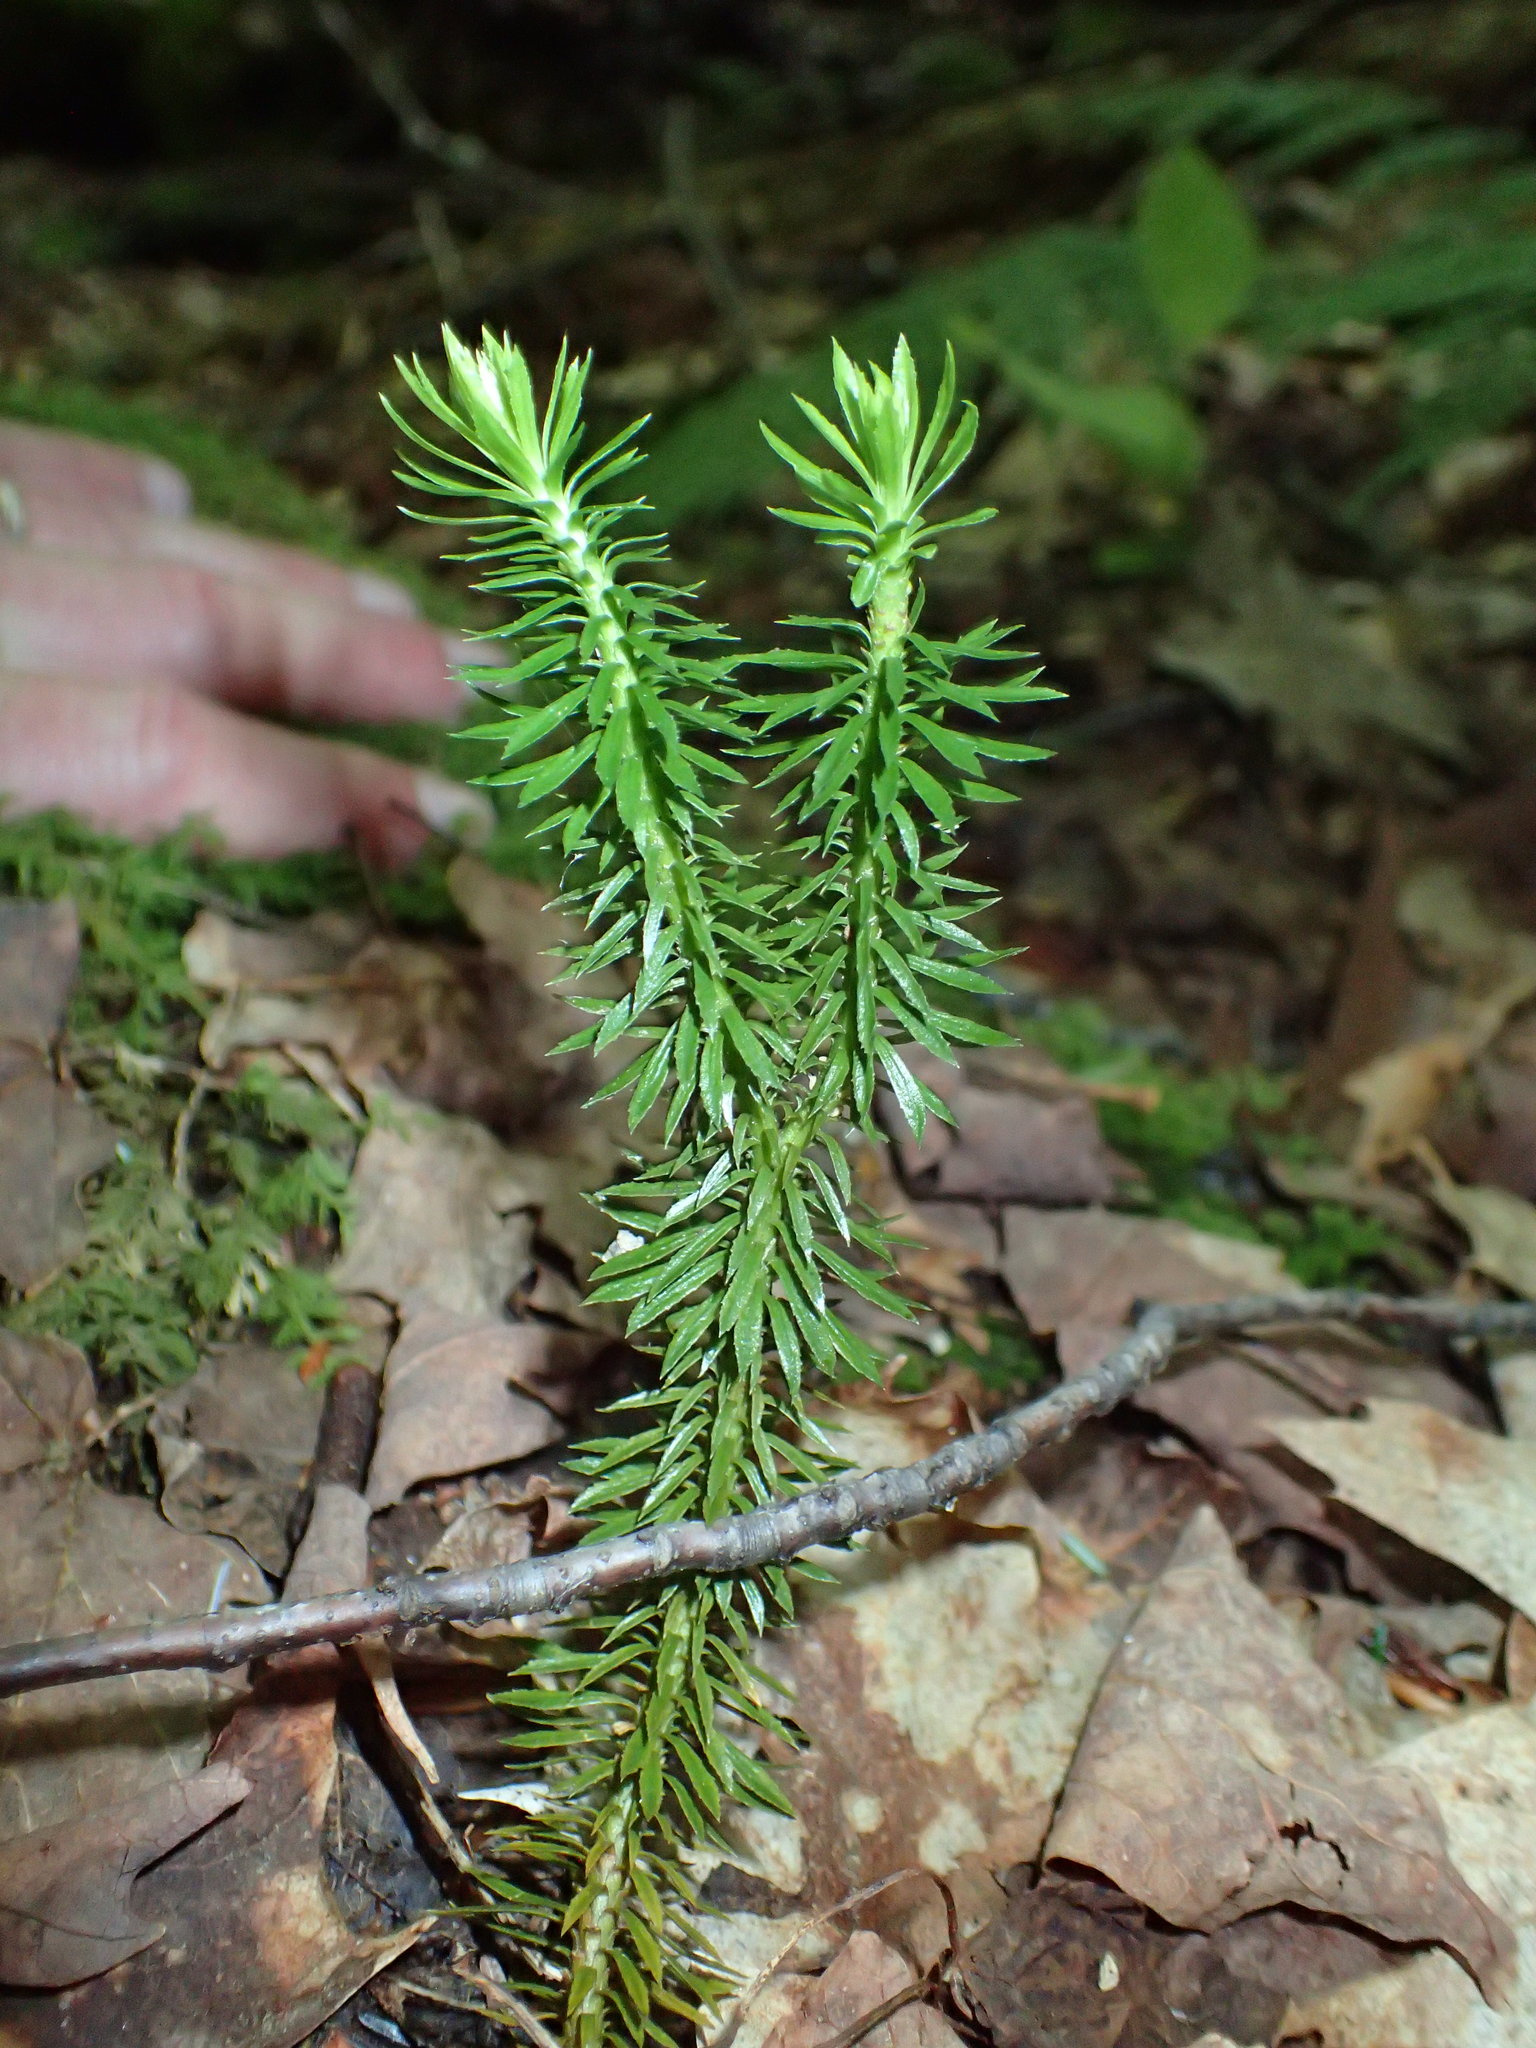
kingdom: Plantae
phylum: Tracheophyta
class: Lycopodiopsida
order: Lycopodiales
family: Lycopodiaceae
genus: Huperzia
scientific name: Huperzia lucidula
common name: Shining clubmoss
